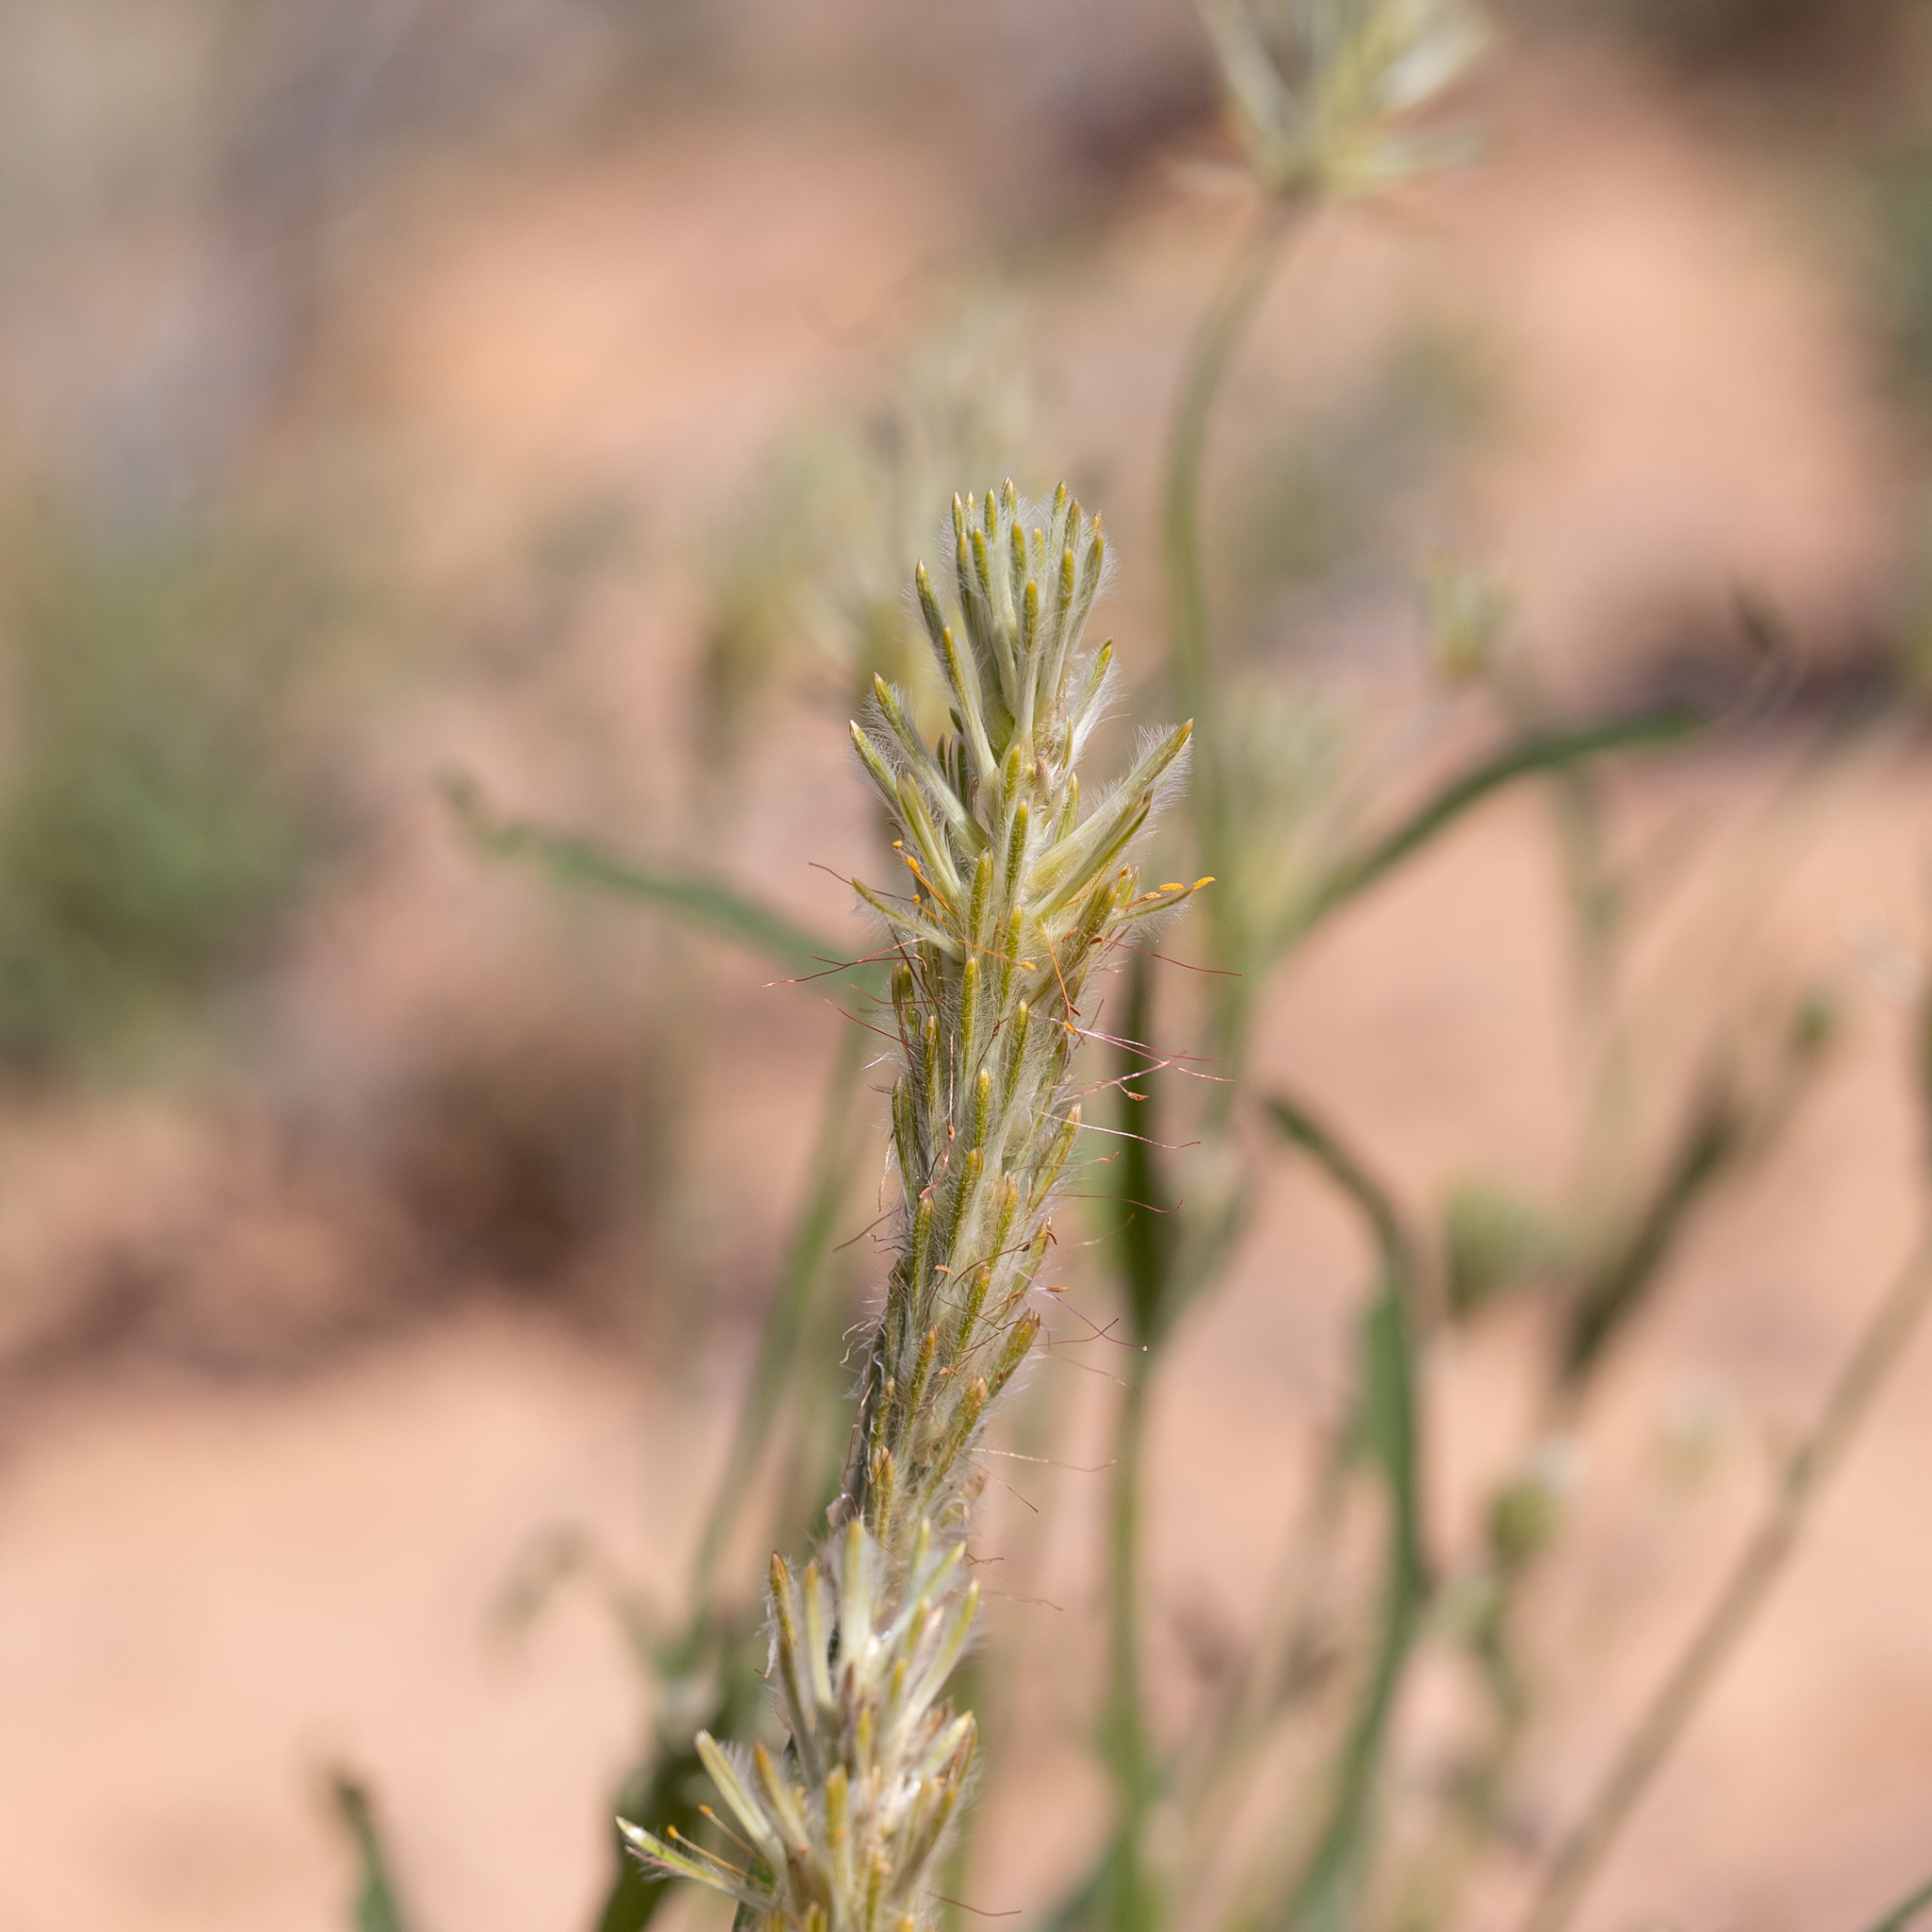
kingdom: Plantae
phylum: Tracheophyta
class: Magnoliopsida
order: Caryophyllales
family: Amaranthaceae
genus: Ptilotus
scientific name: Ptilotus polystachyus
